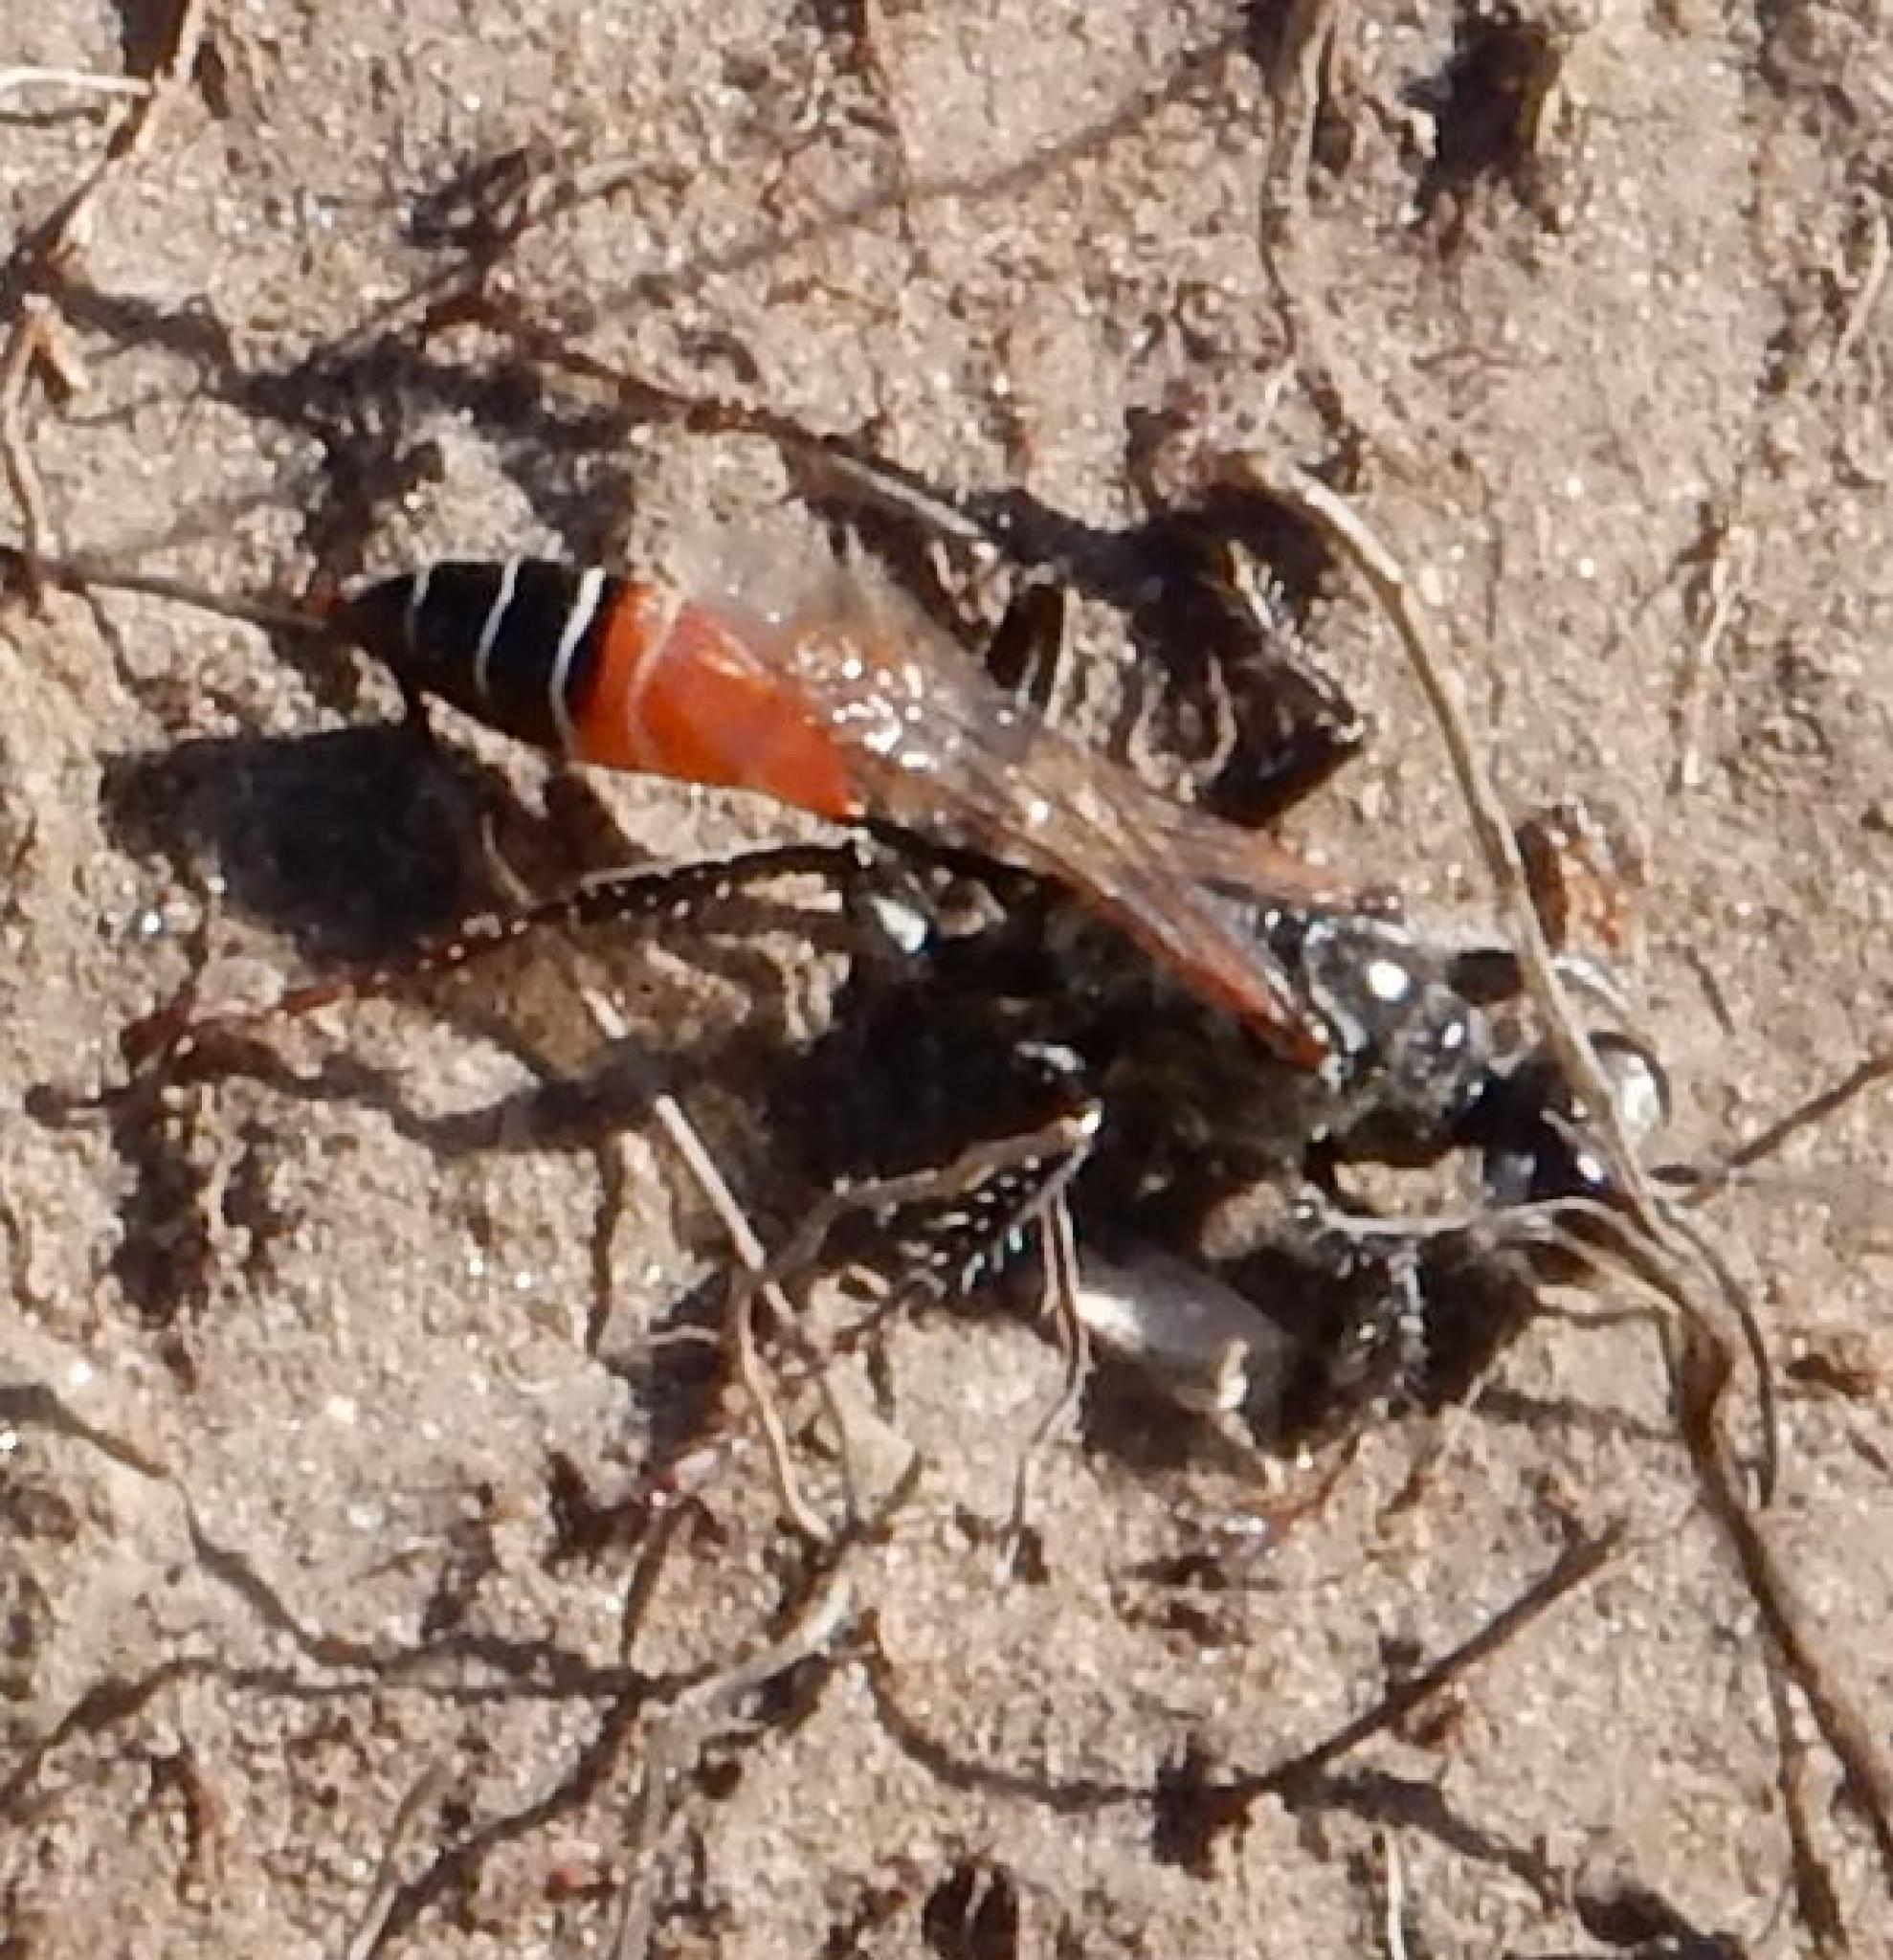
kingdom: Animalia
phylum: Arthropoda
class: Insecta
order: Hymenoptera
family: Sphecidae
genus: Prionyx
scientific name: Prionyx kirbii
